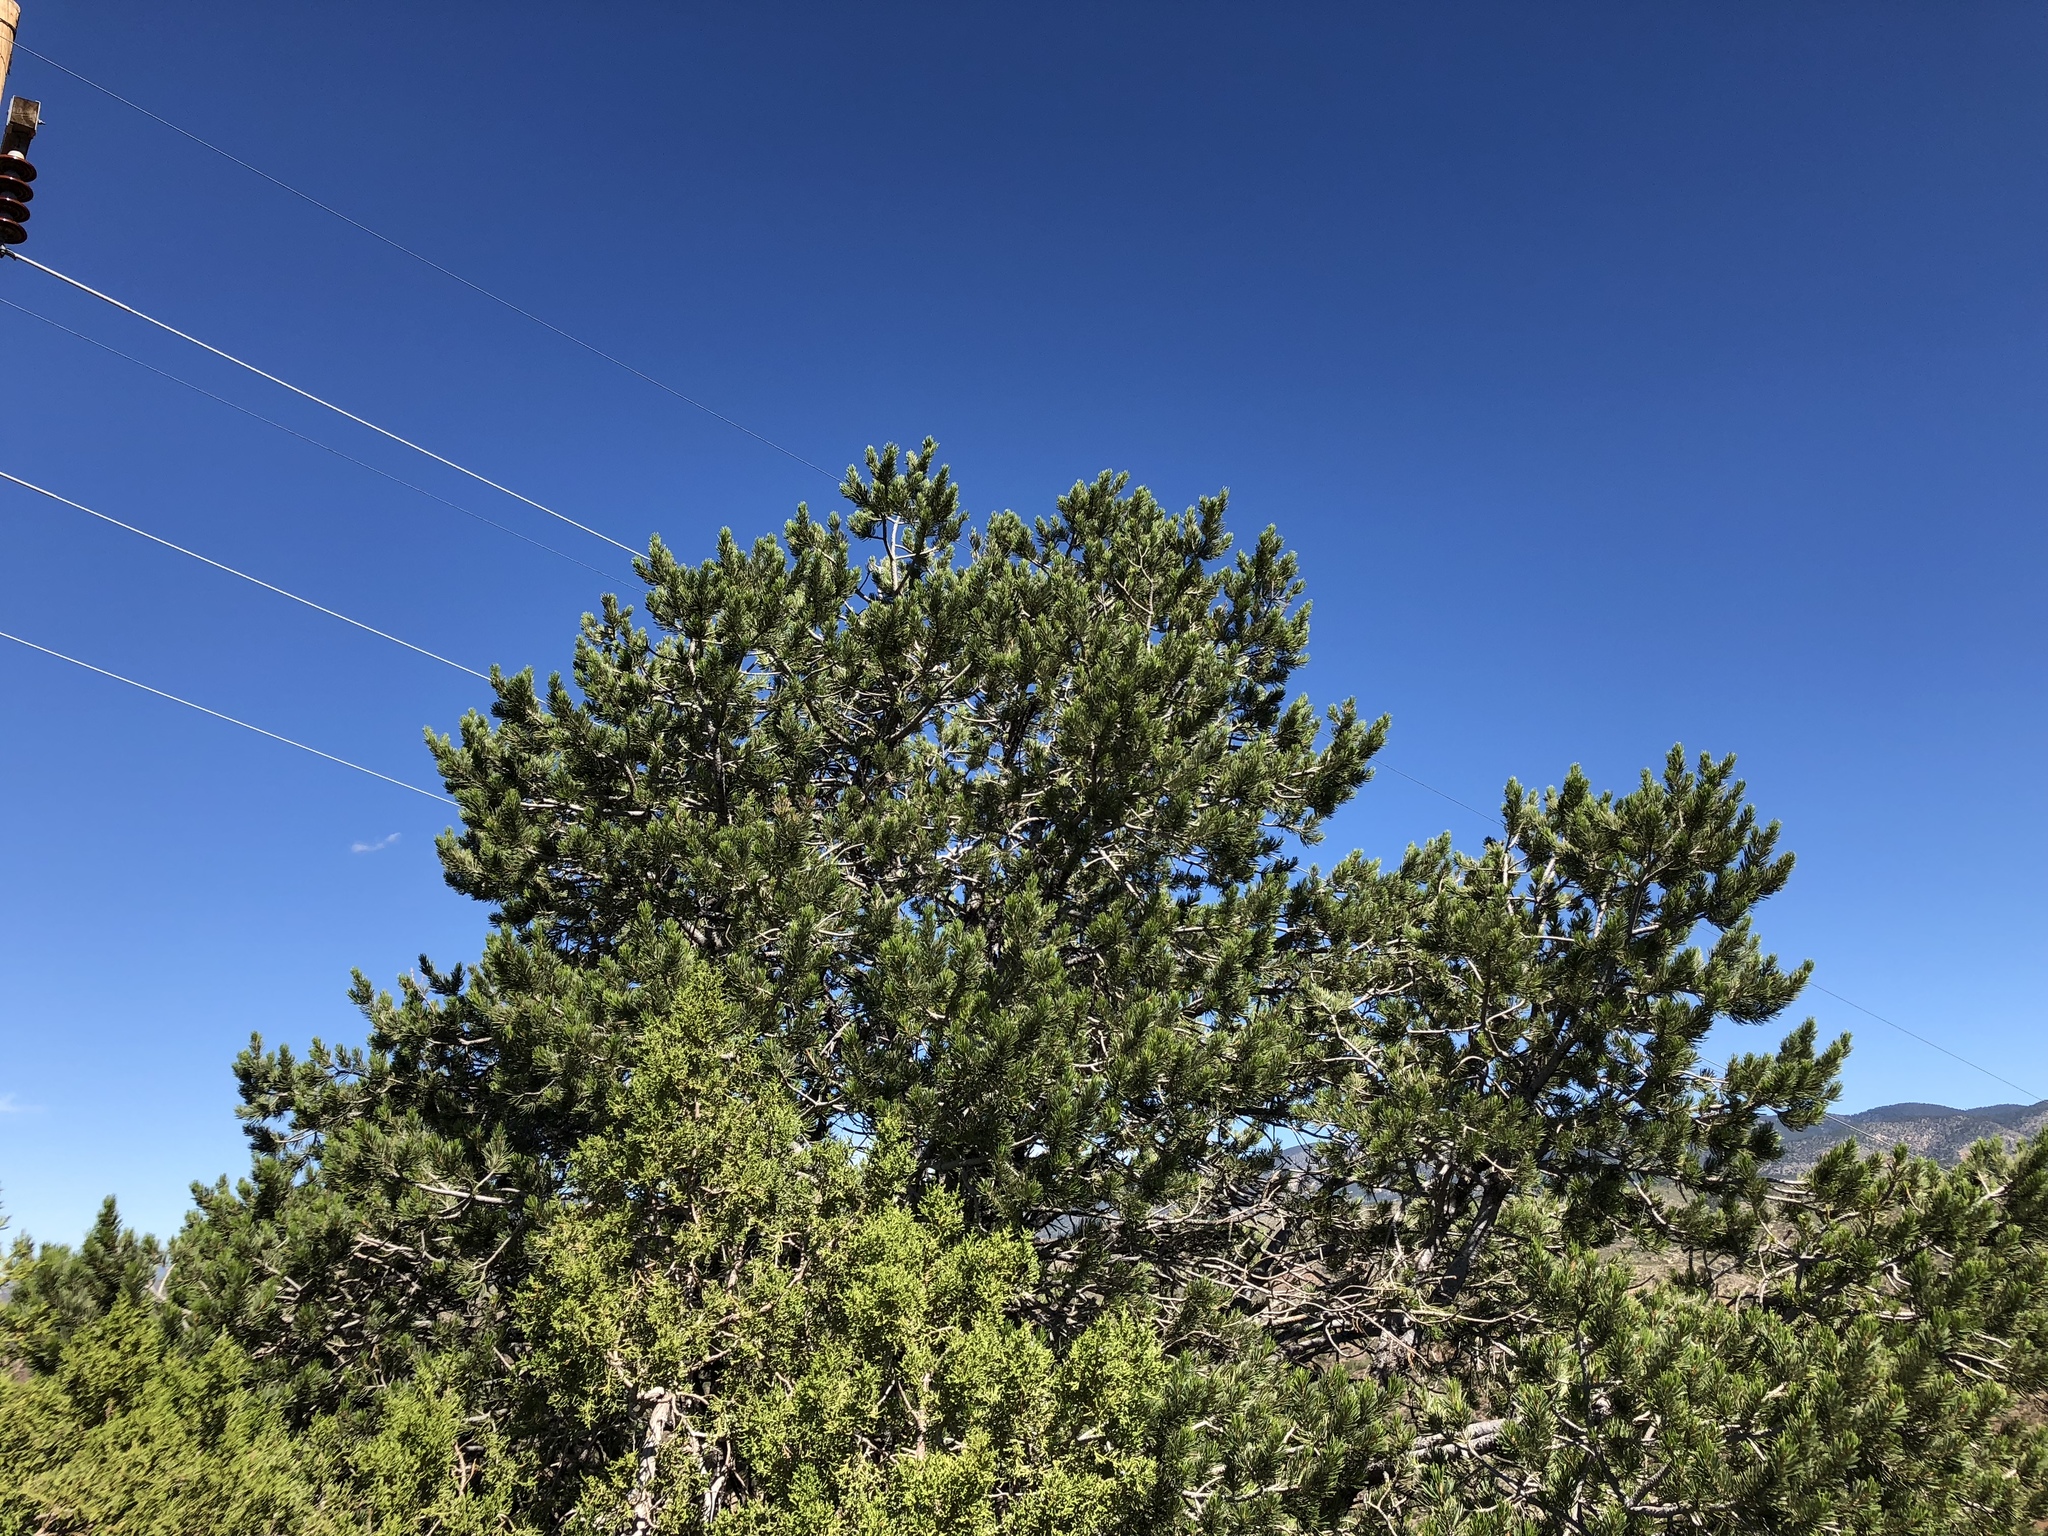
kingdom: Plantae
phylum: Tracheophyta
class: Pinopsida
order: Pinales
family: Pinaceae
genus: Pinus
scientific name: Pinus edulis
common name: Colorado pinyon
